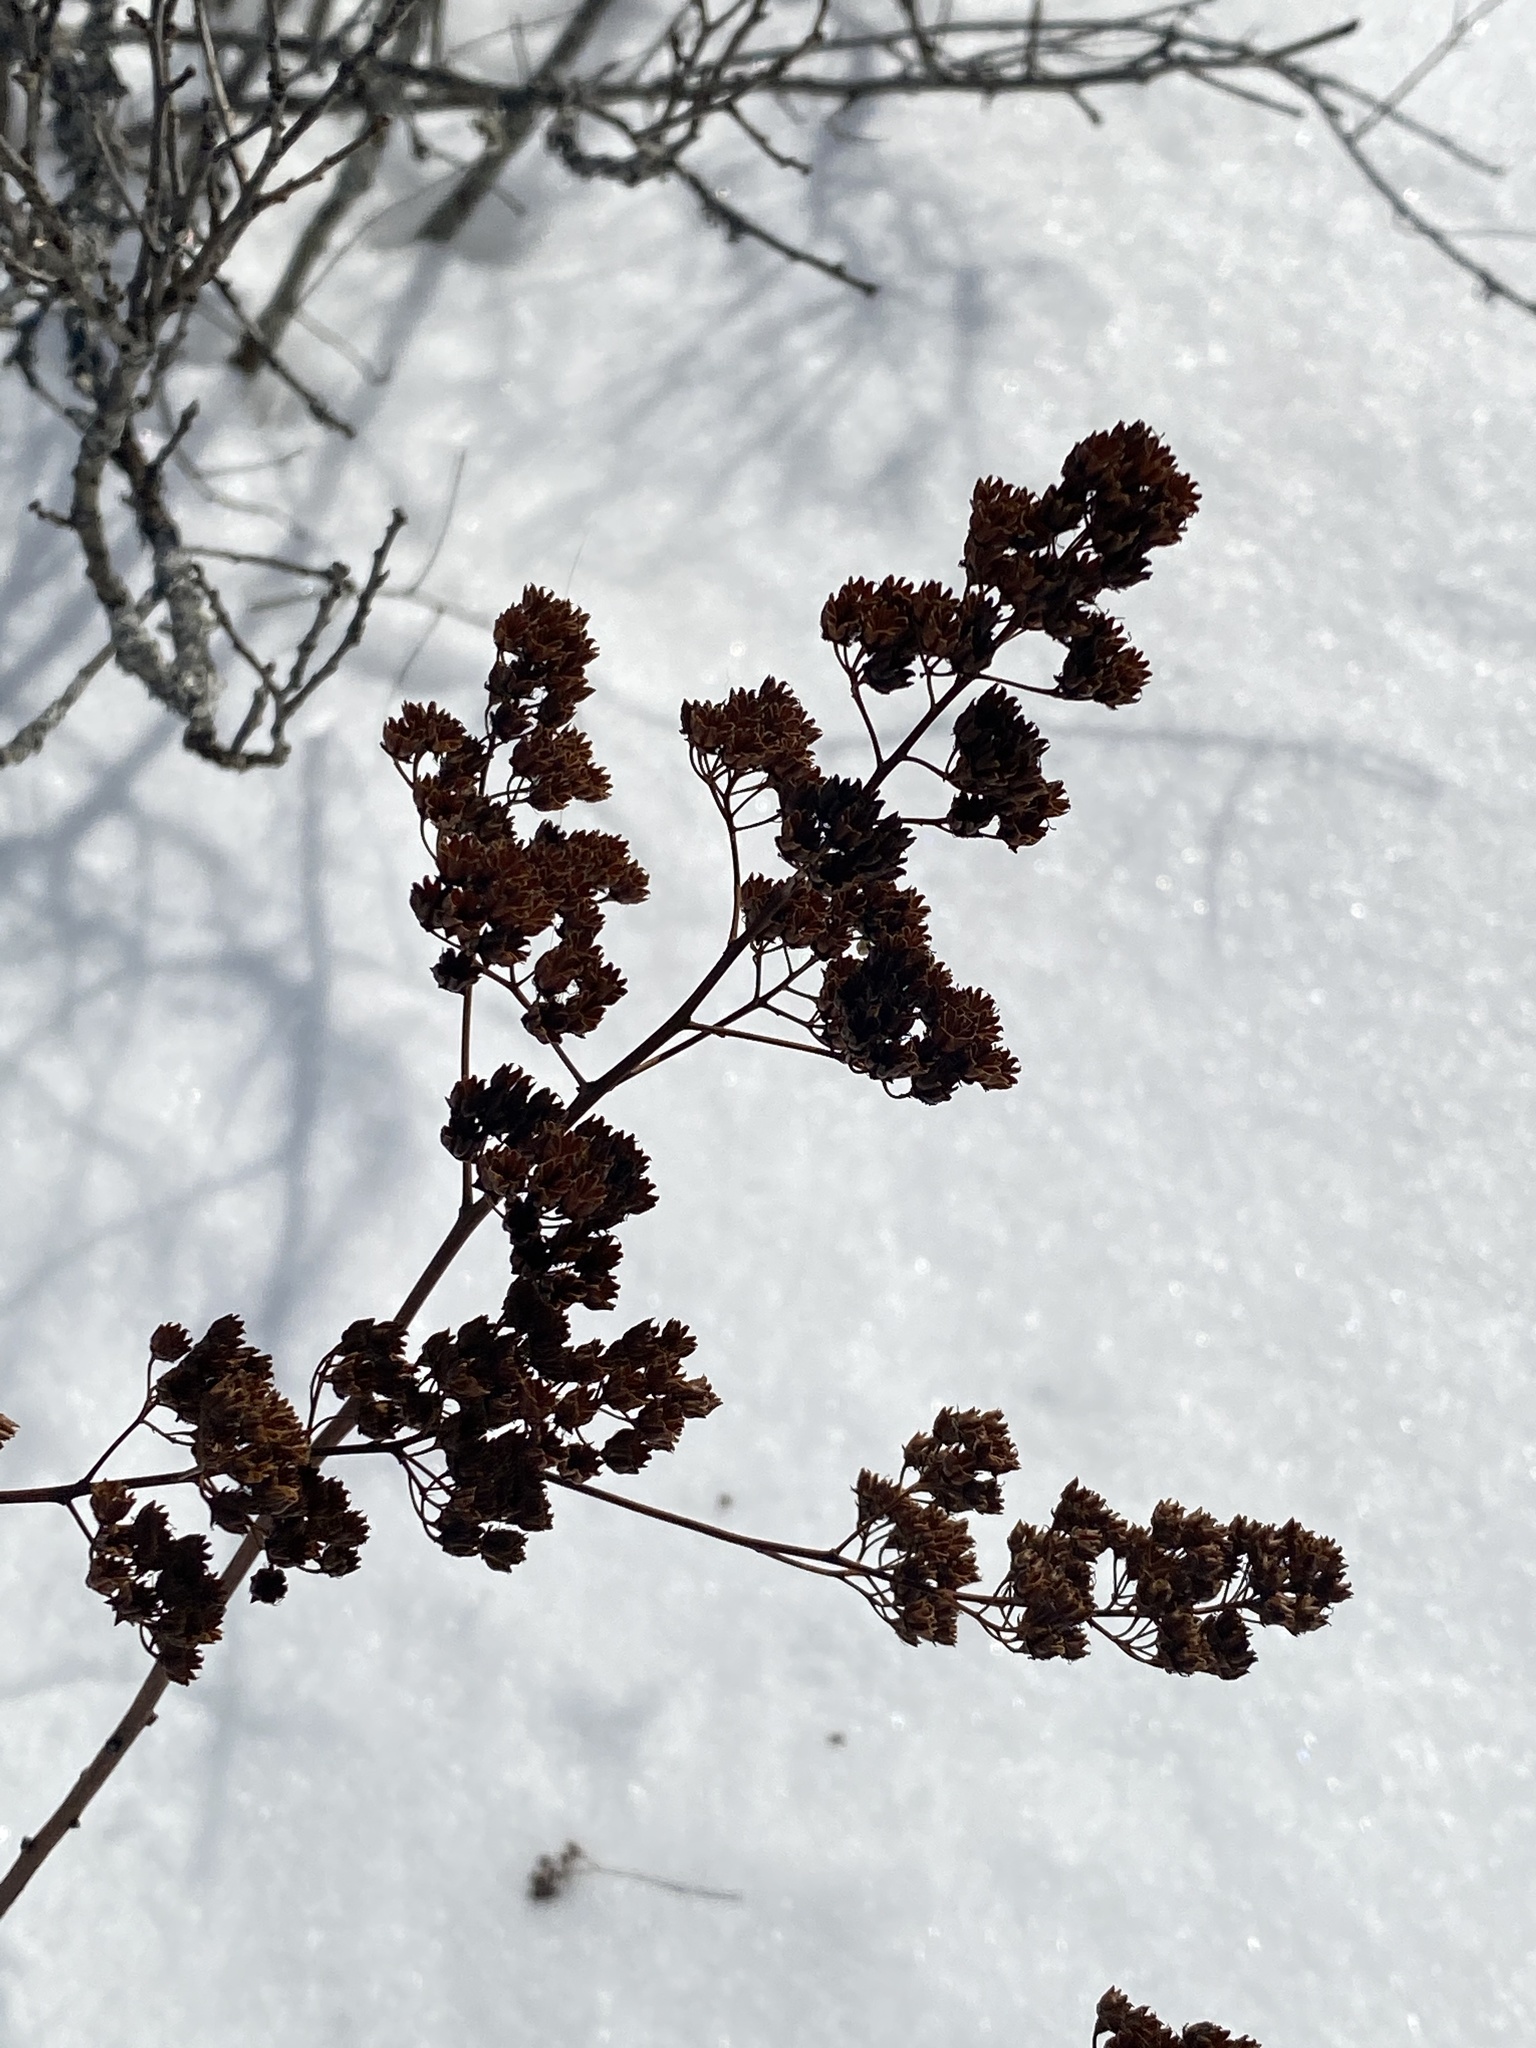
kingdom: Plantae
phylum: Tracheophyta
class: Magnoliopsida
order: Rosales
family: Rosaceae
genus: Spiraea
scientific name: Spiraea alba
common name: Pale bridewort
